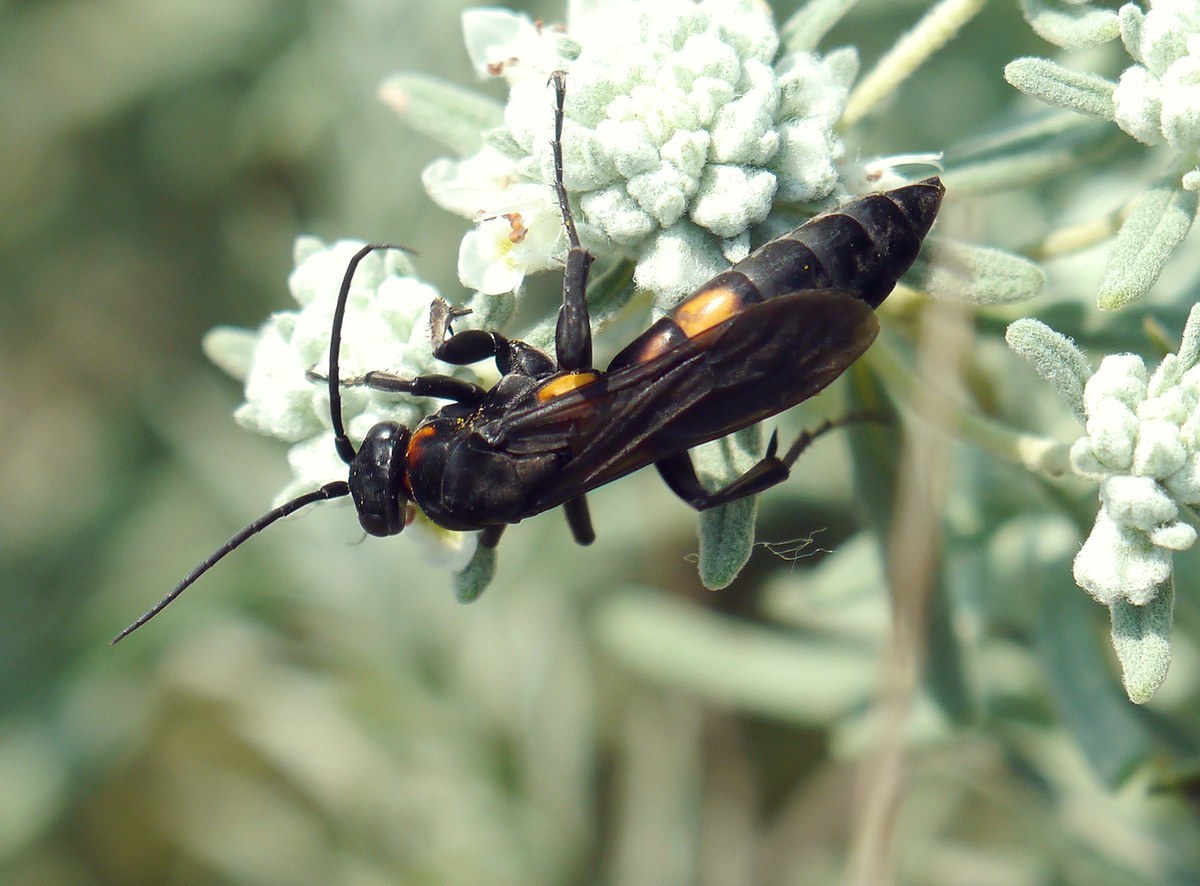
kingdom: Animalia
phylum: Arthropoda
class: Insecta
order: Hymenoptera
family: Pompilidae
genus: Eoferreola
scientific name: Eoferreola erythraea
